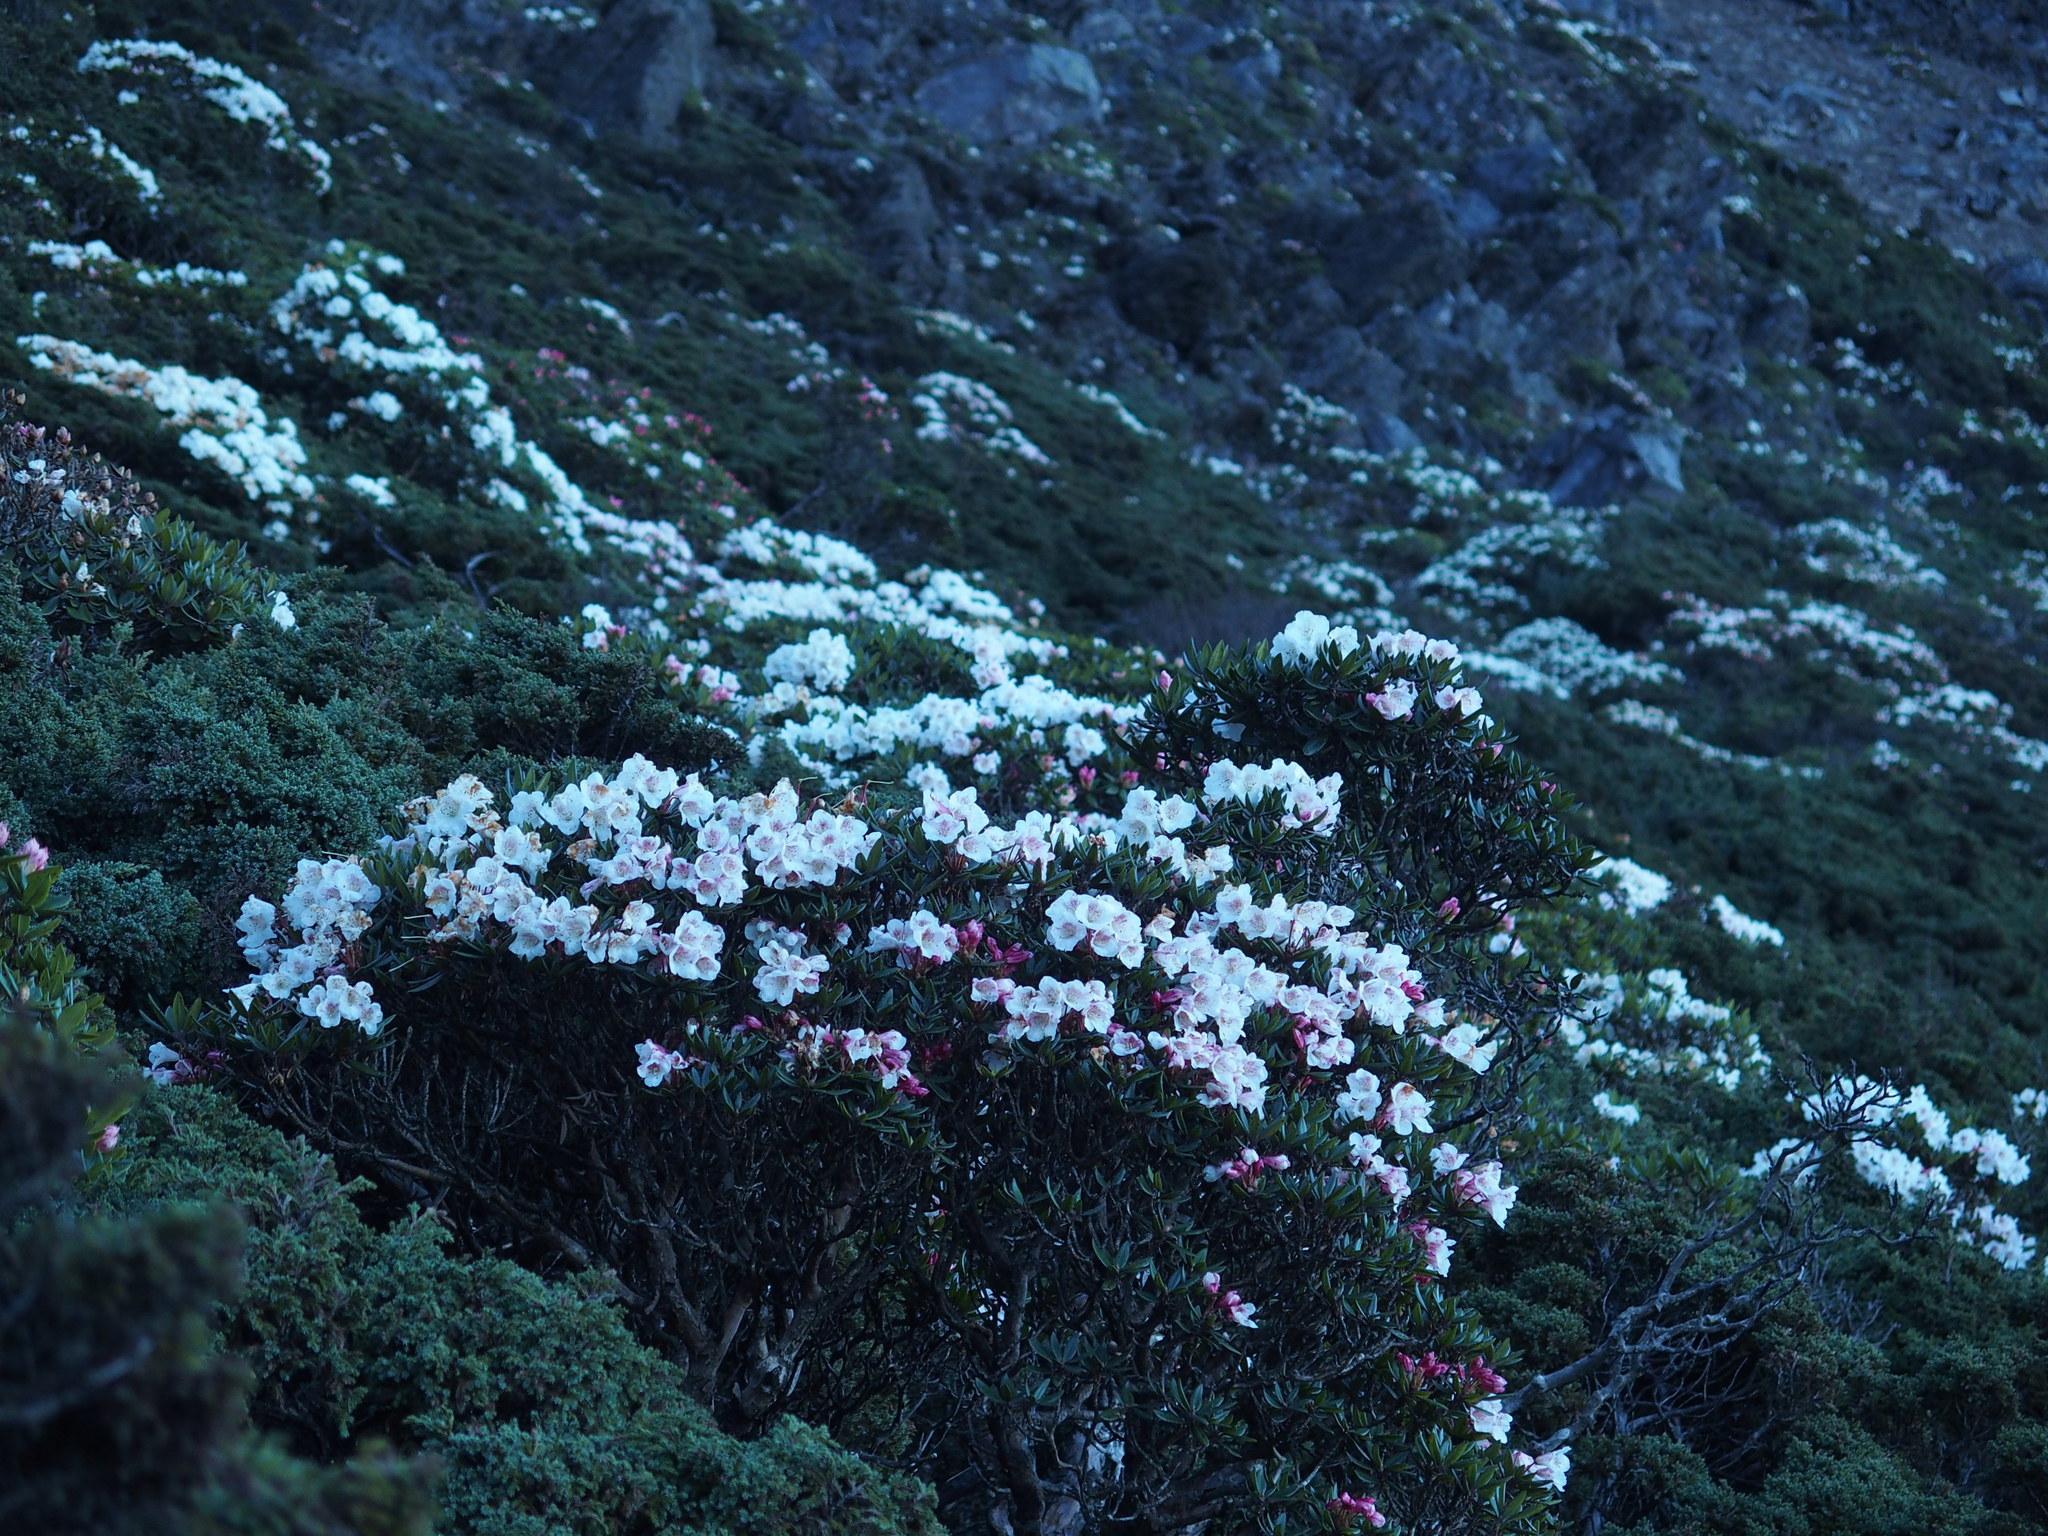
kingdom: Plantae
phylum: Tracheophyta
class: Magnoliopsida
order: Ericales
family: Ericaceae
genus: Rhododendron
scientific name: Rhododendron pseudochrysanthum
